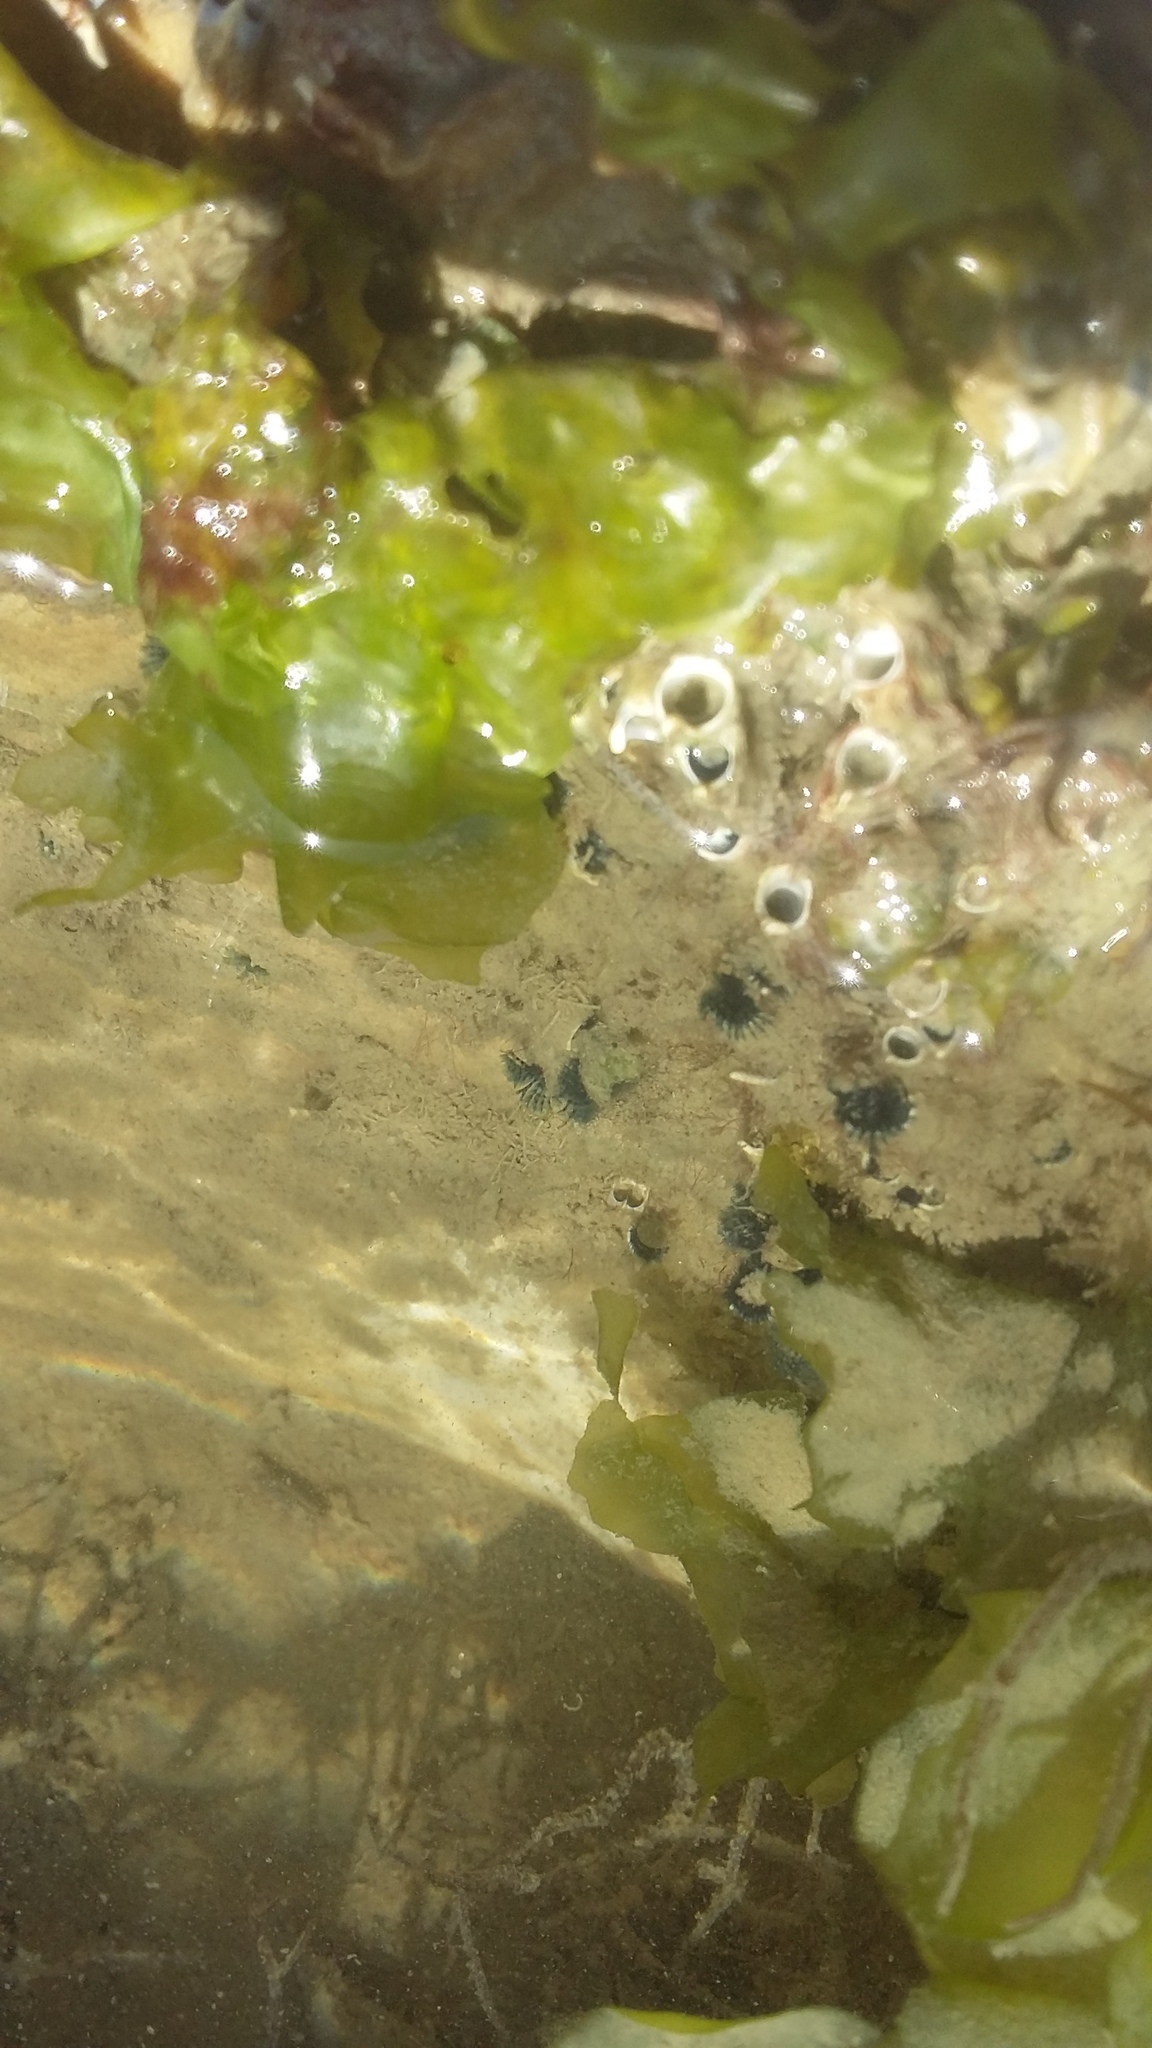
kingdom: Animalia
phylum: Annelida
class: Polychaeta
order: Sabellida
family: Serpulidae
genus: Spirobranchus
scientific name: Spirobranchus cariniferus
